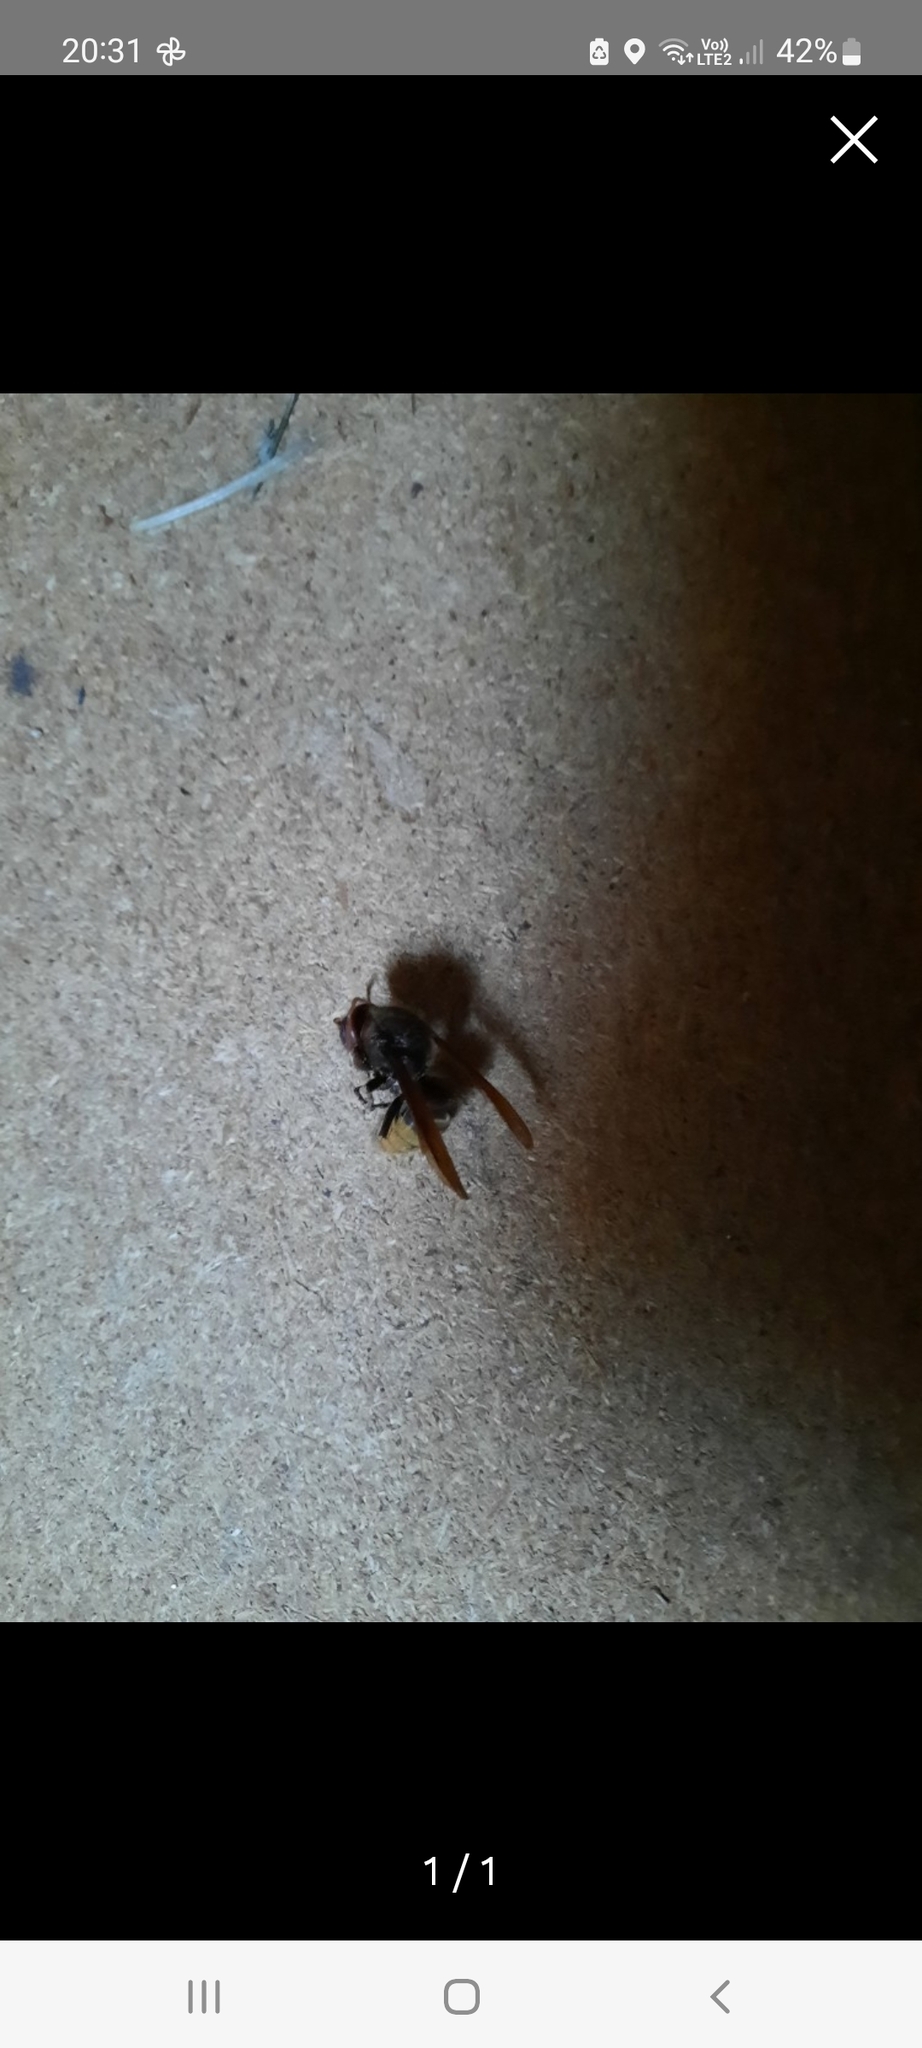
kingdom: Animalia
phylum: Arthropoda
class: Insecta
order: Hymenoptera
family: Vespidae
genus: Vespa
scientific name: Vespa crabro
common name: Hornet
